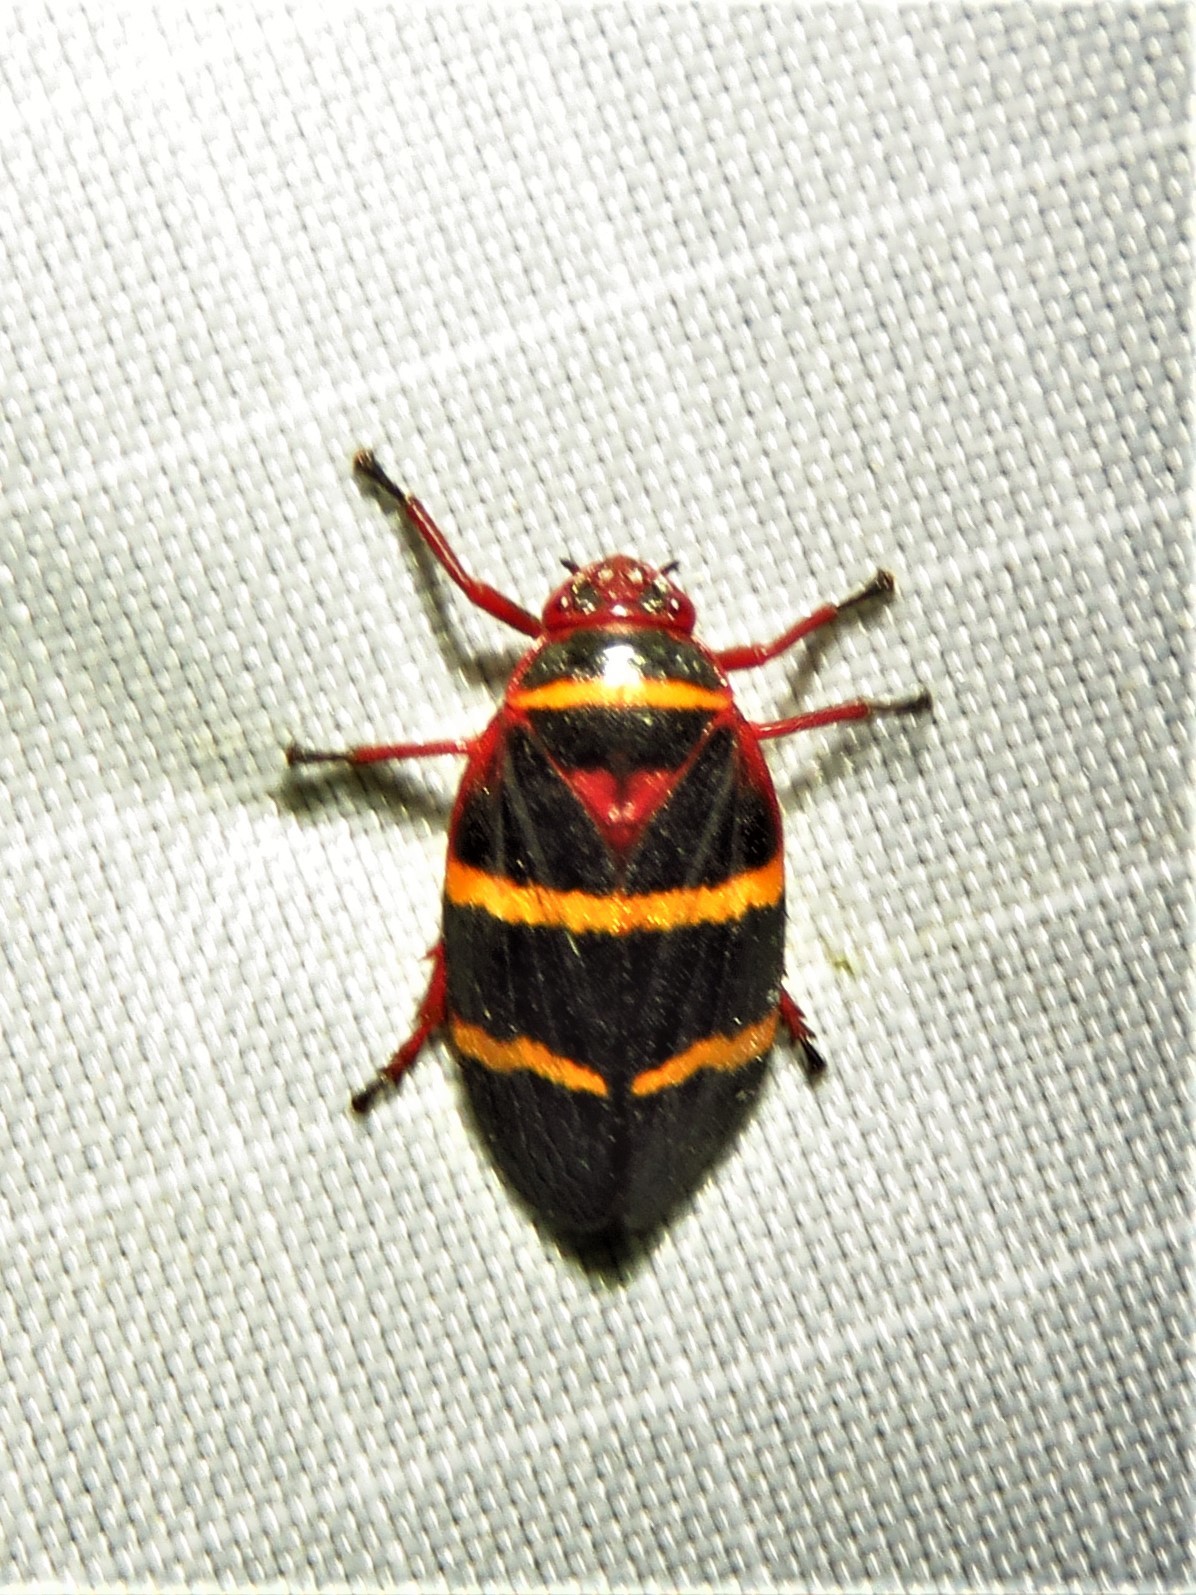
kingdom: Animalia
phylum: Arthropoda
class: Insecta
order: Hemiptera
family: Cercopidae
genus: Prosapia
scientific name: Prosapia bicincta
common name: Twolined spittlebug
